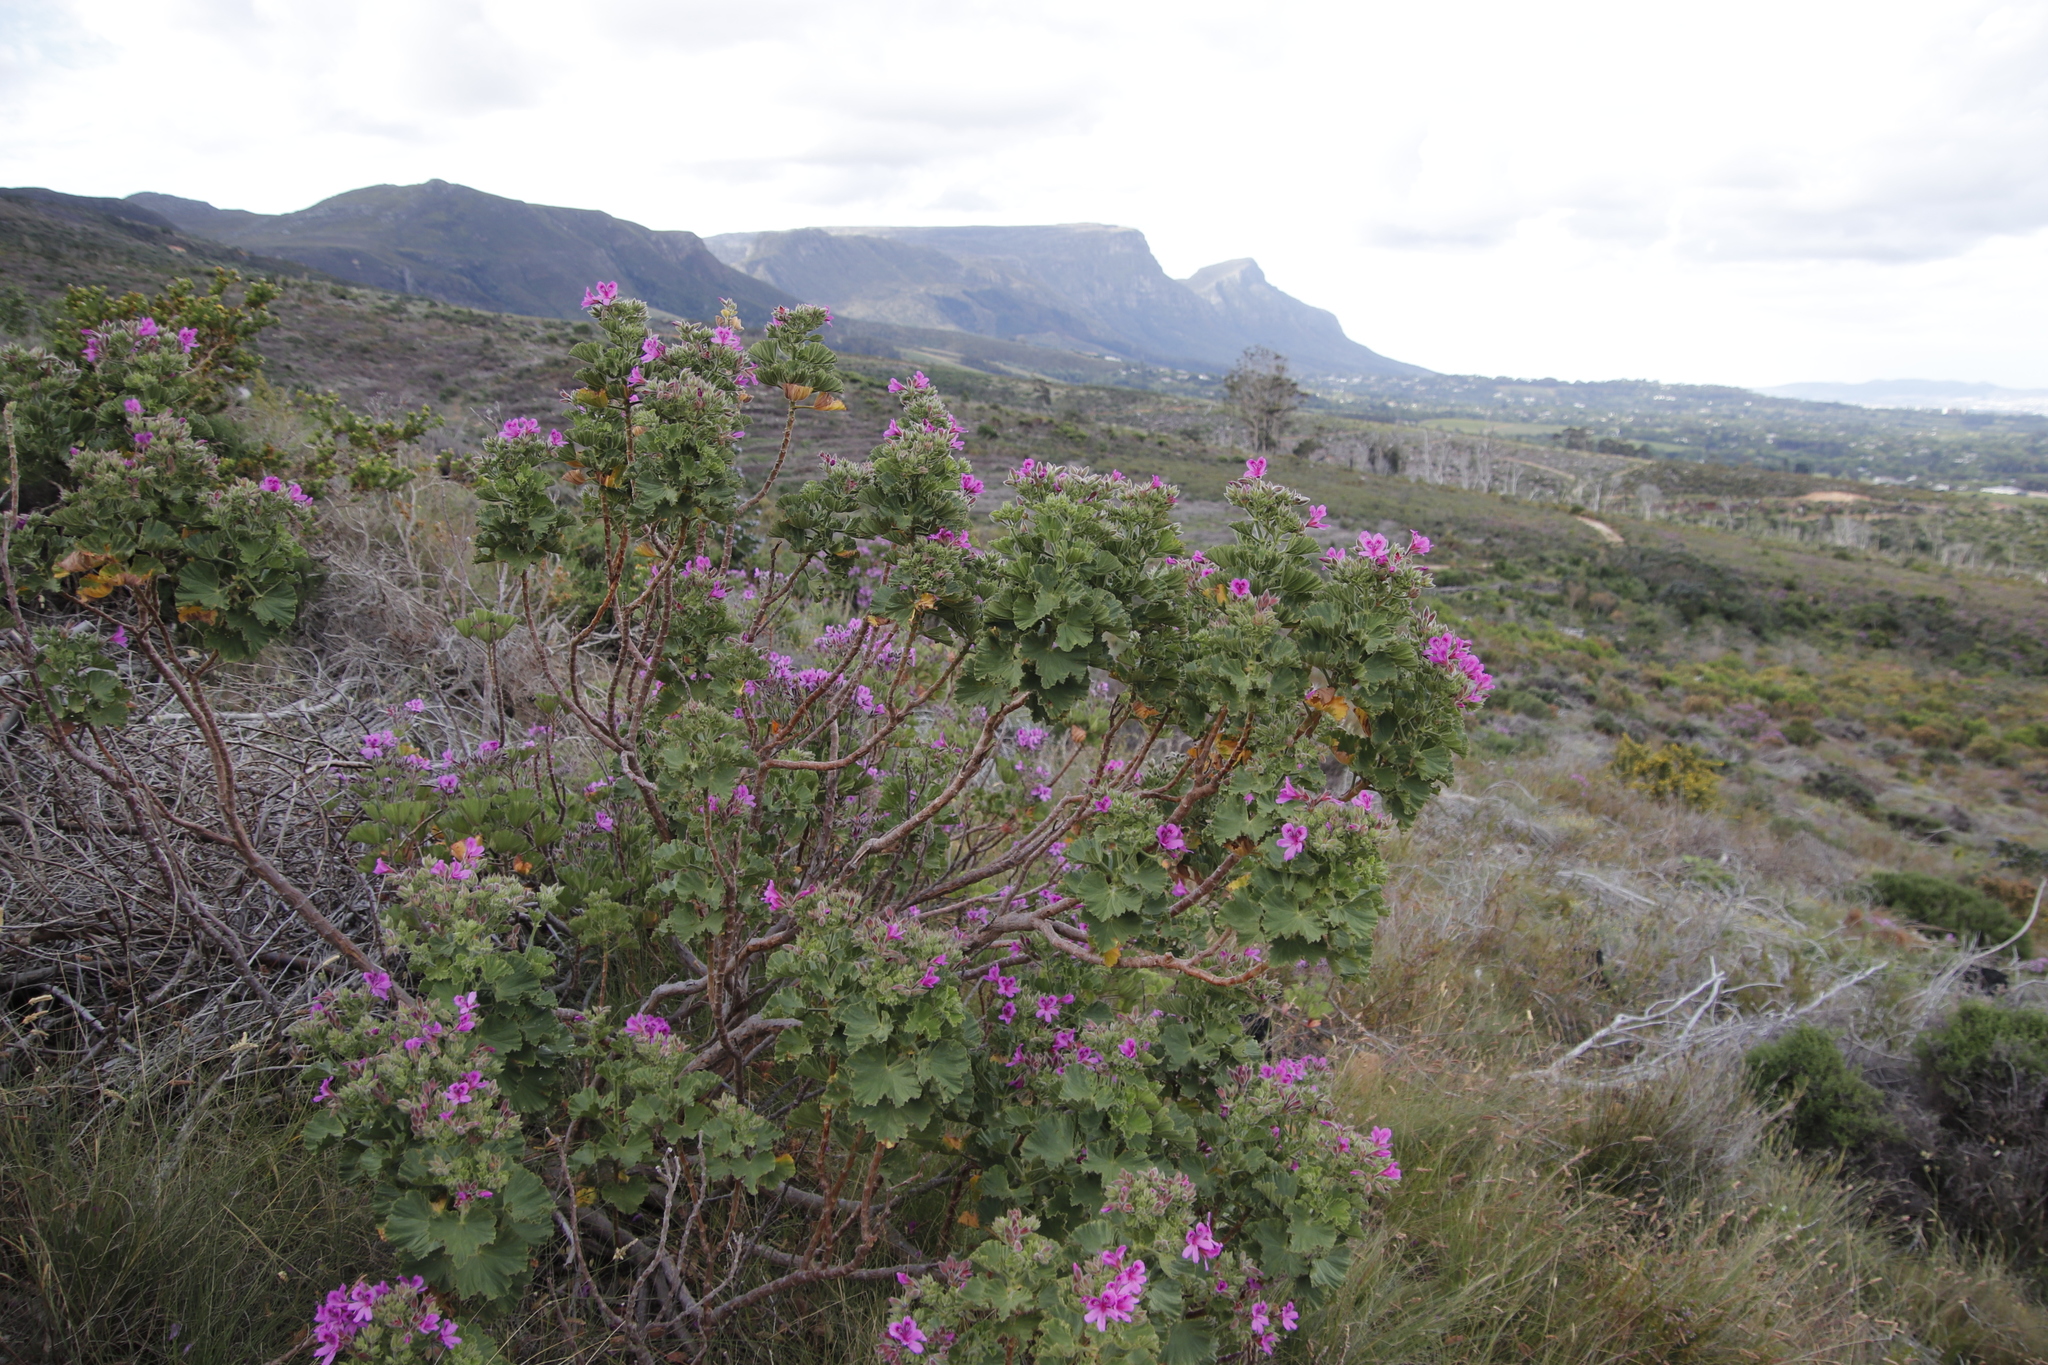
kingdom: Plantae
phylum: Tracheophyta
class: Magnoliopsida
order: Geraniales
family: Geraniaceae
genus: Pelargonium
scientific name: Pelargonium cucullatum
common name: Tree pelargonium
